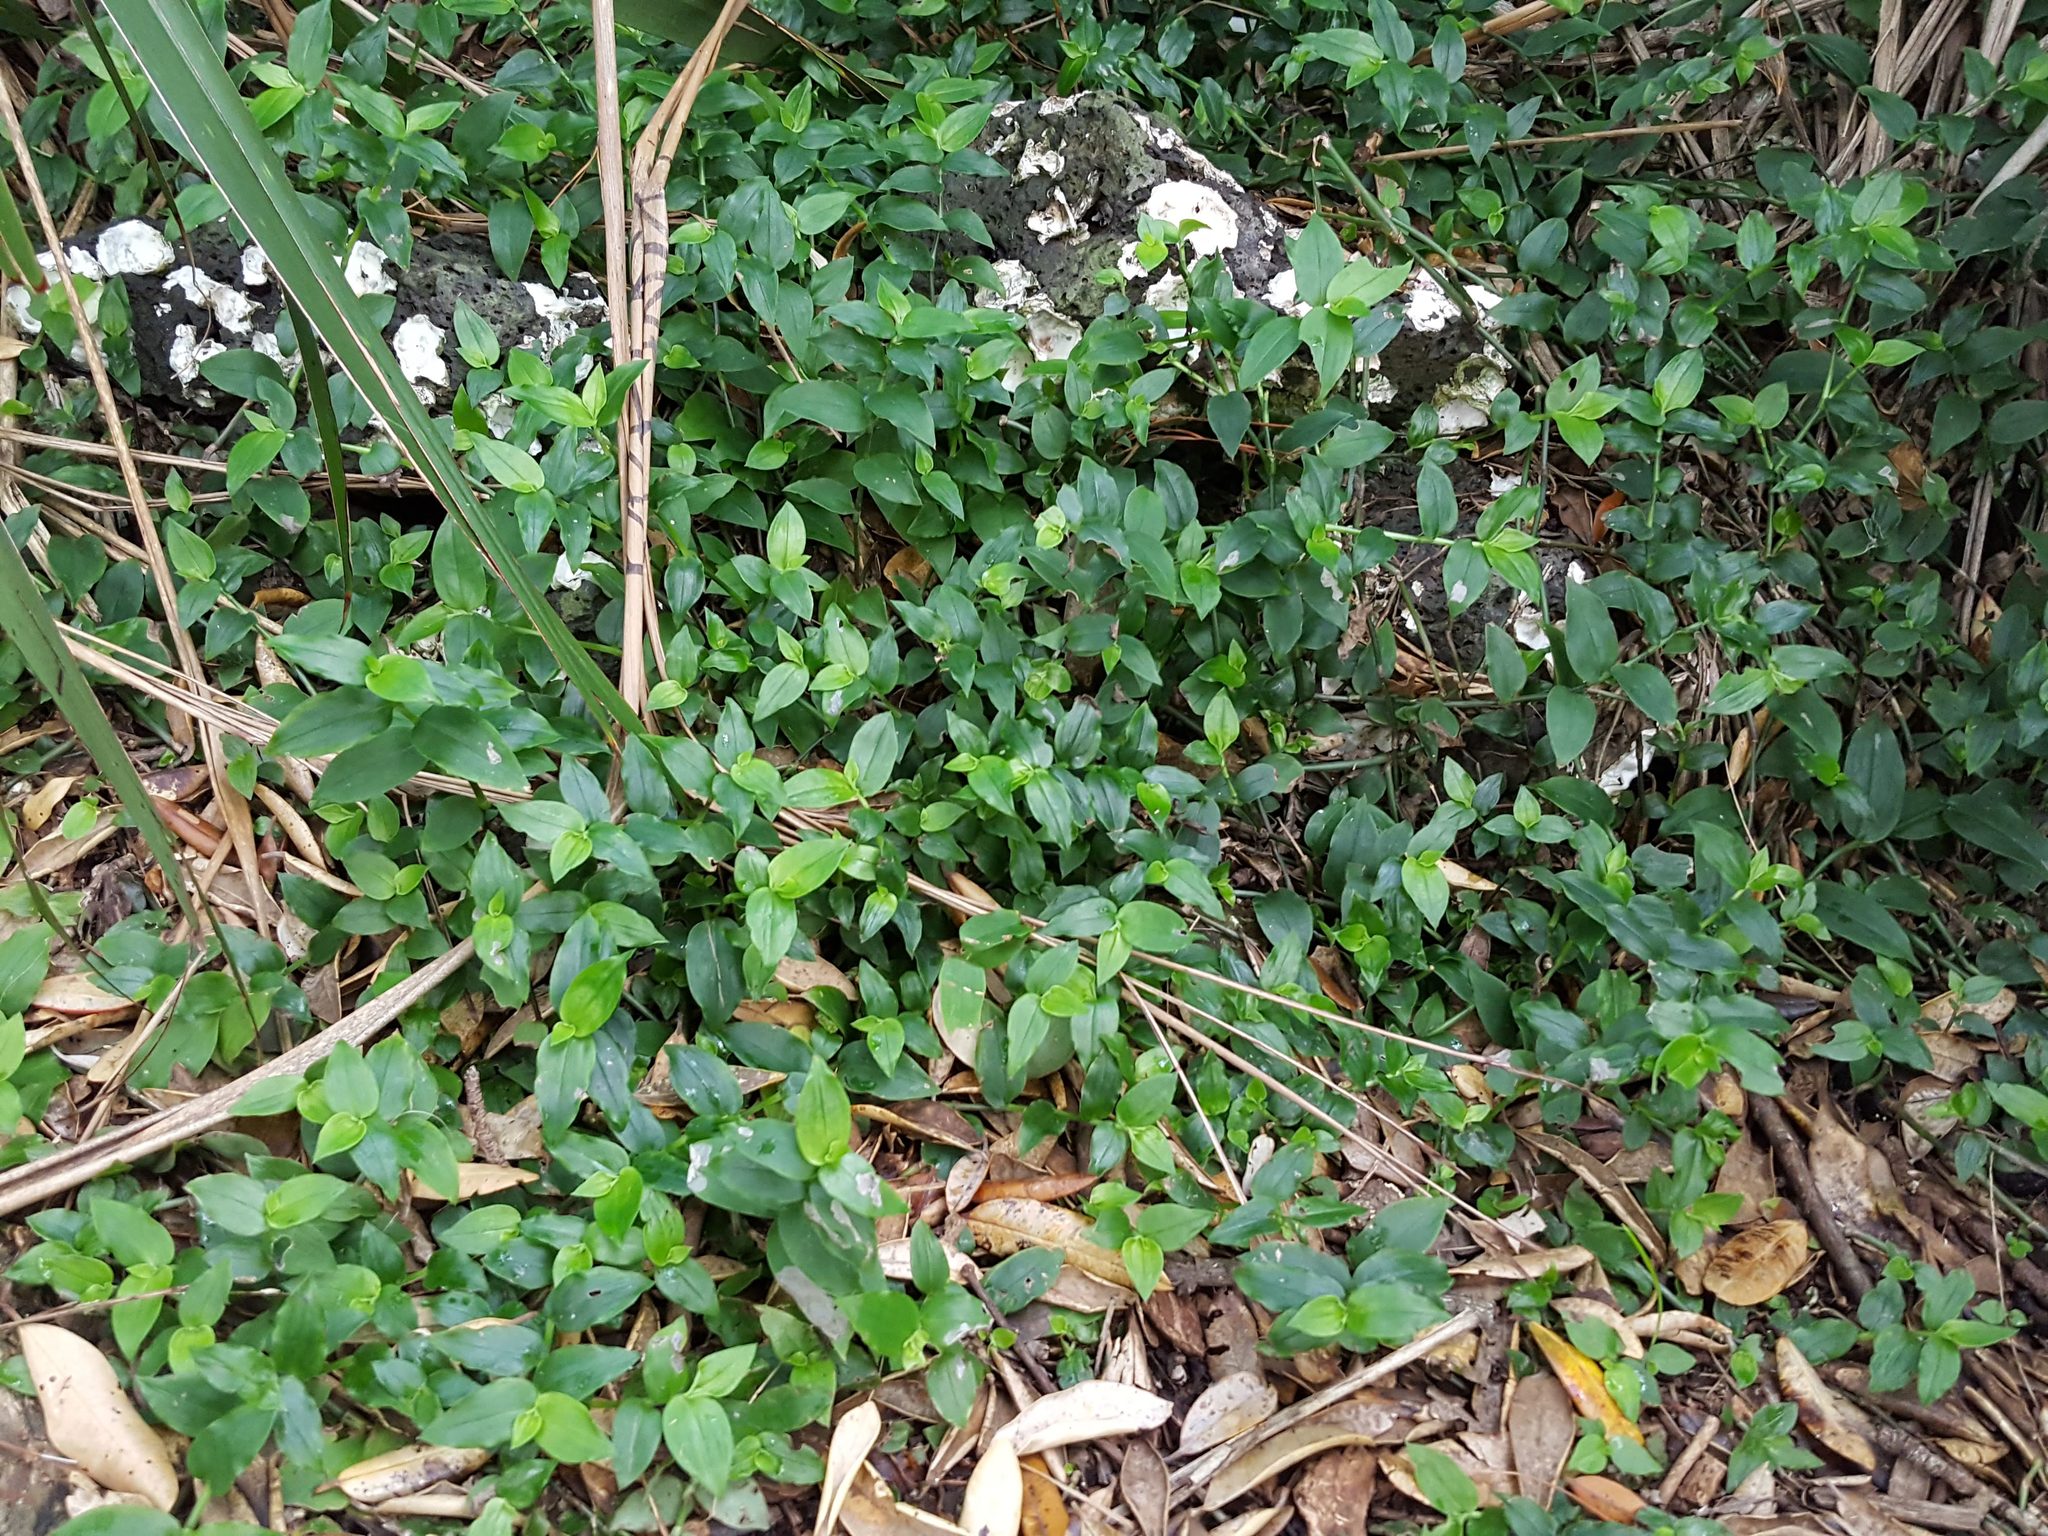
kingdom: Plantae
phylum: Tracheophyta
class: Liliopsida
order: Commelinales
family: Commelinaceae
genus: Tradescantia
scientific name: Tradescantia fluminensis
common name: Wandering-jew
